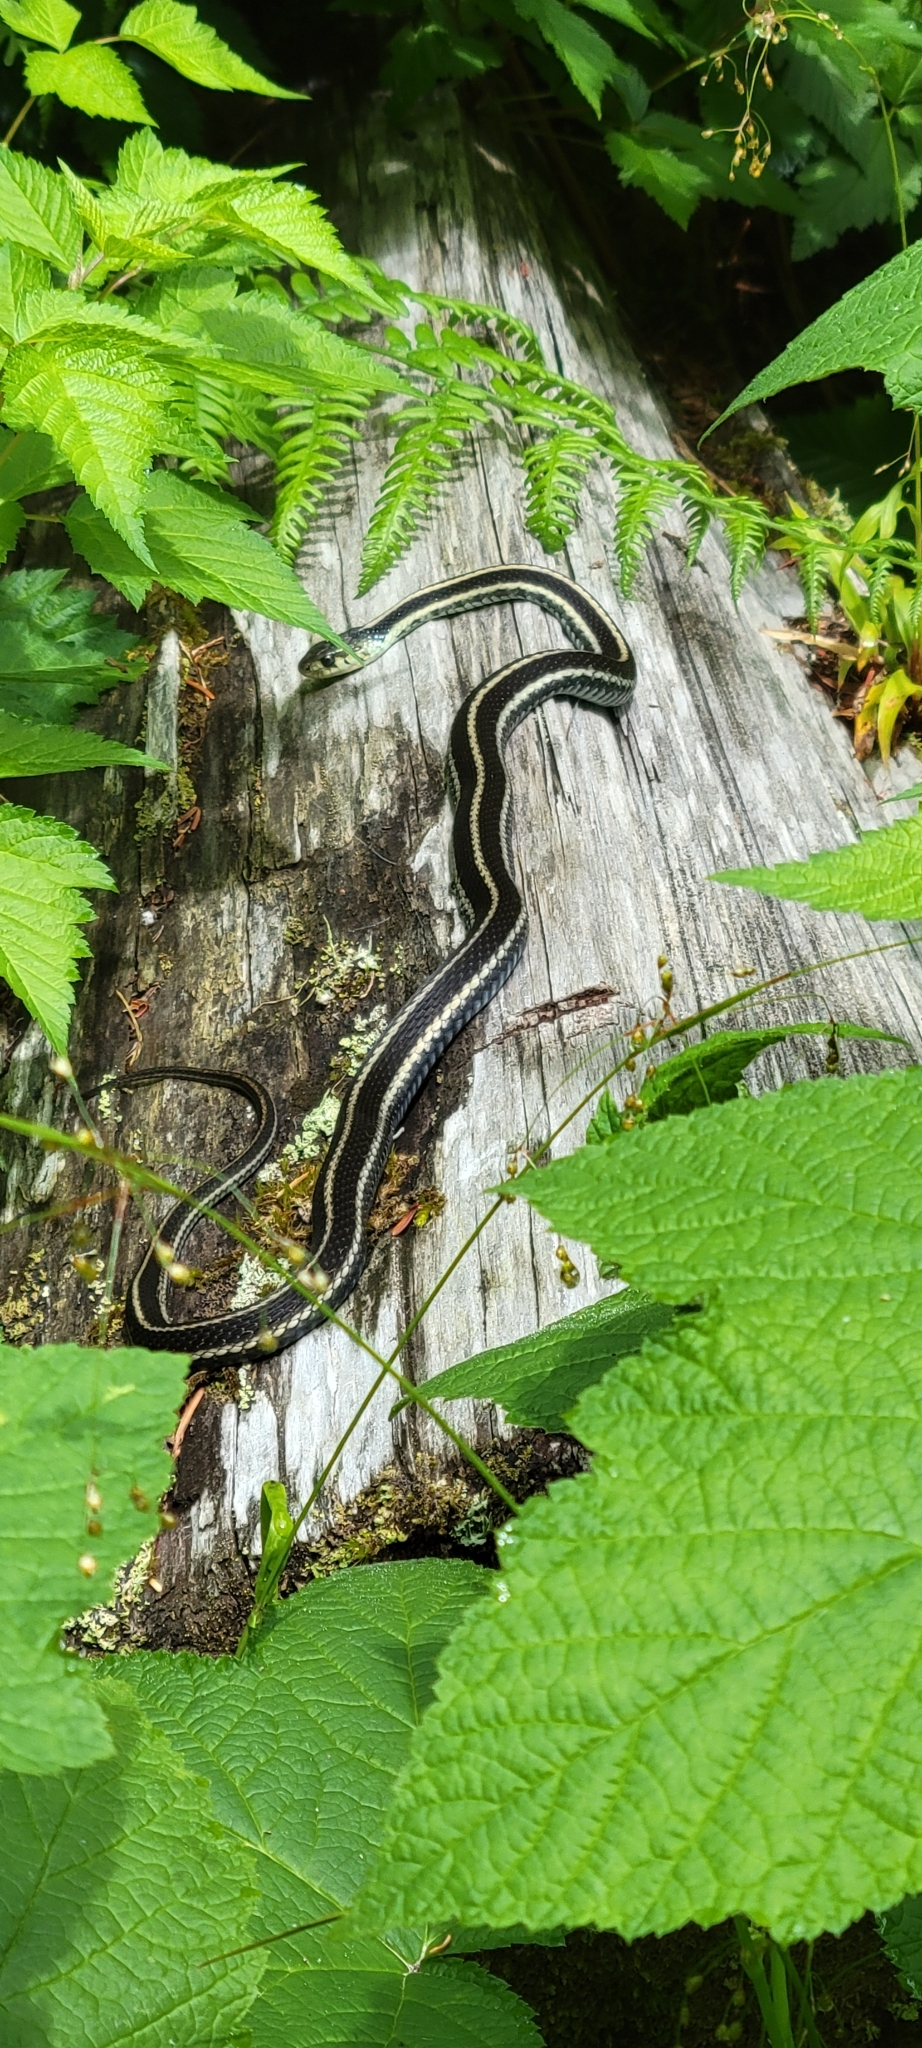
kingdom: Animalia
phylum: Chordata
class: Squamata
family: Colubridae
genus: Thamnophis
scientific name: Thamnophis sirtalis
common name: Common garter snake
